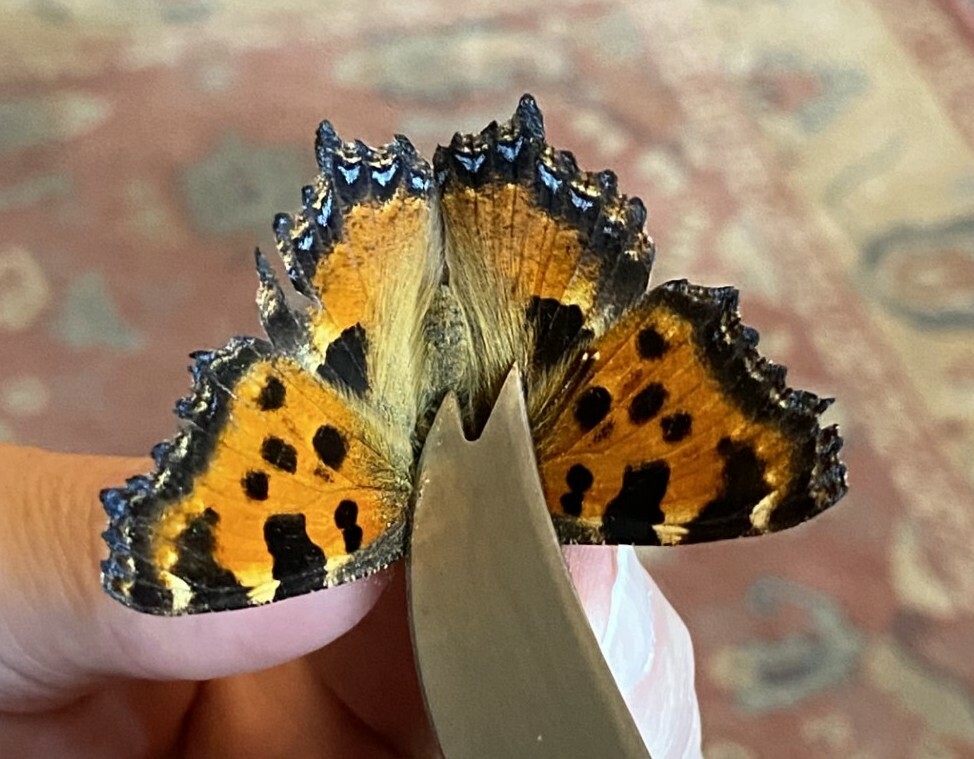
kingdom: Animalia
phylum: Arthropoda
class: Insecta
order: Lepidoptera
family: Nymphalidae
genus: Nymphalis
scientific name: Nymphalis polychloros
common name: Large tortoiseshell
